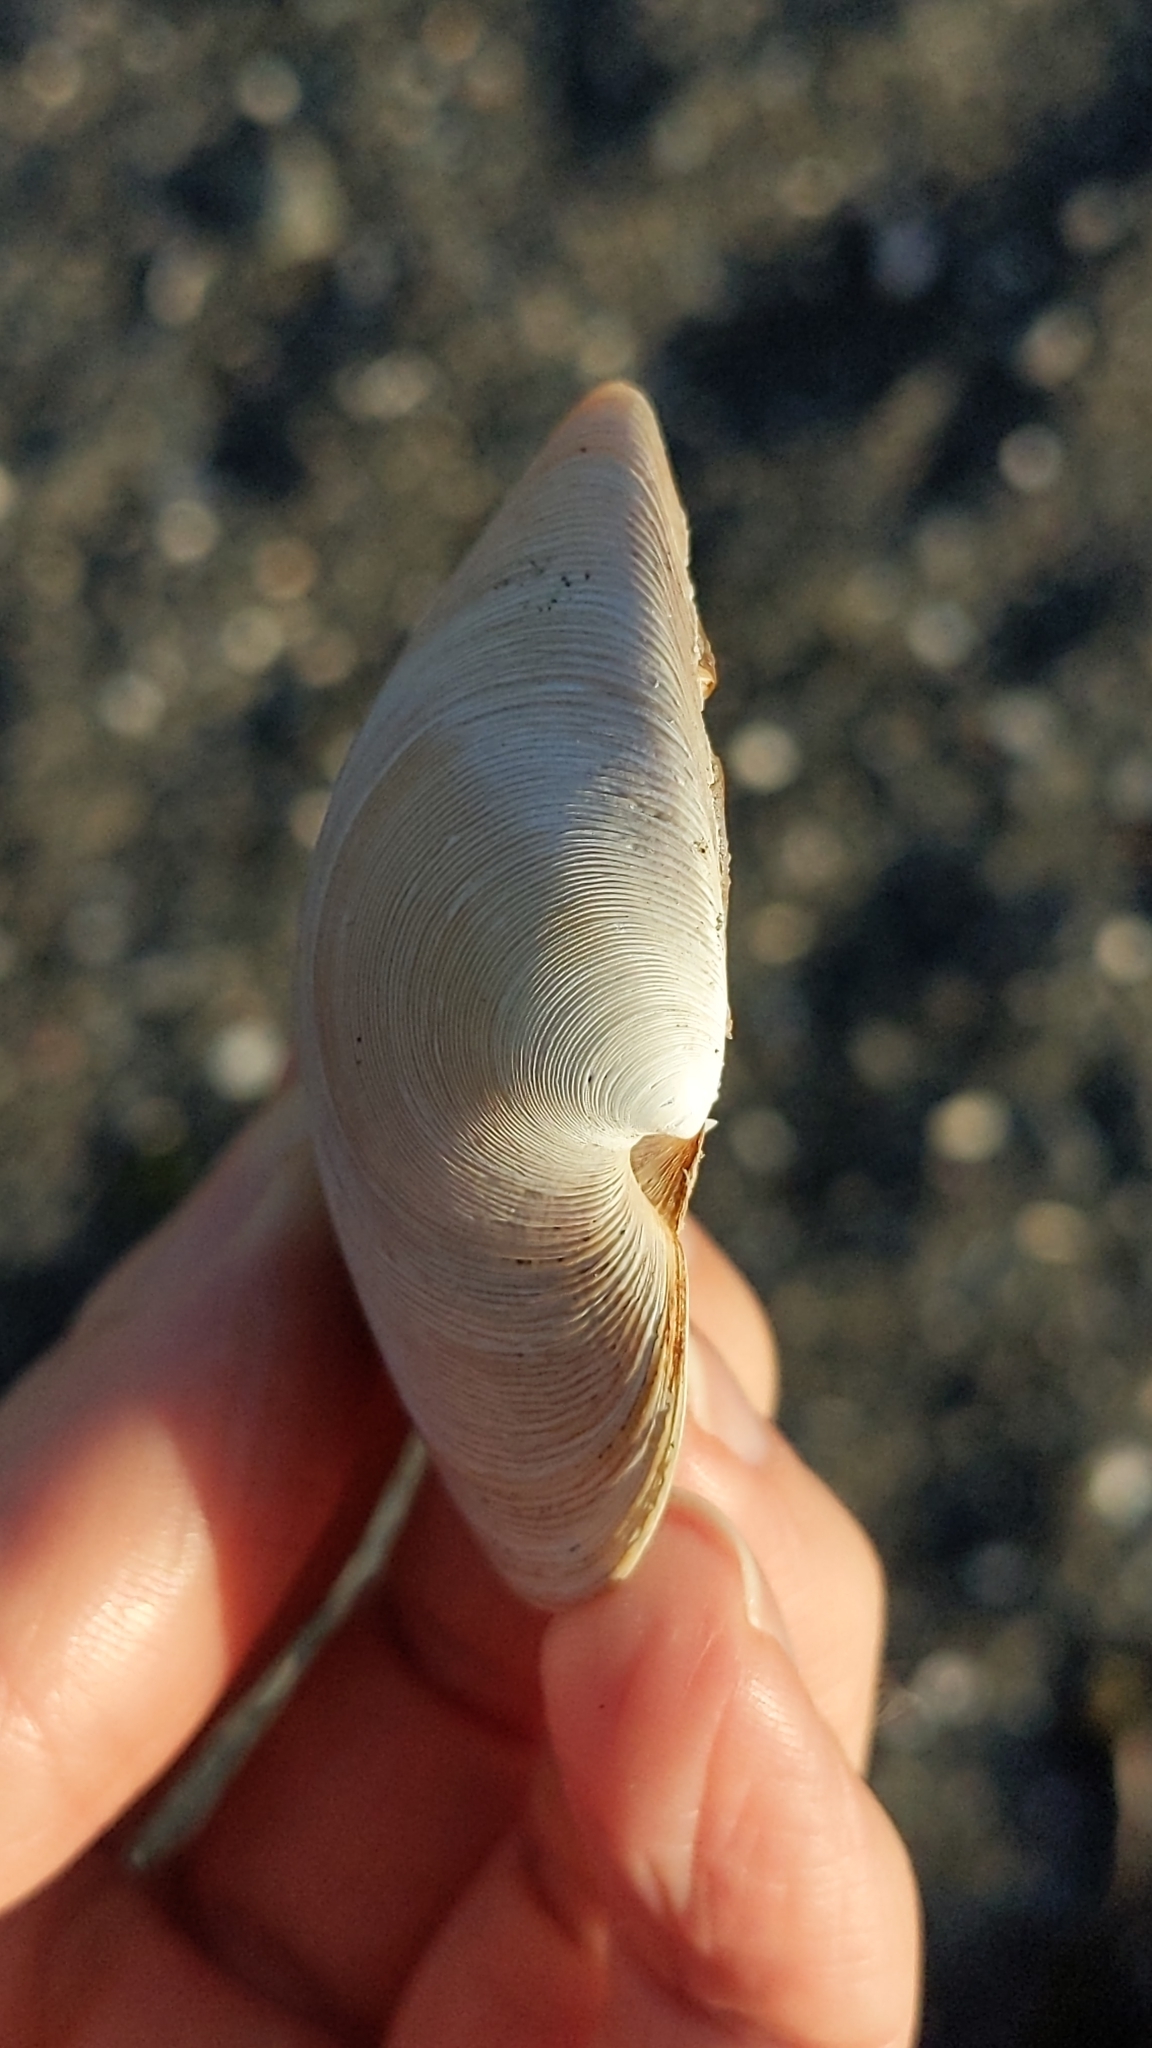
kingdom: Animalia
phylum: Mollusca
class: Bivalvia
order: Venerida
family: Veneridae
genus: Dosinia
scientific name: Dosinia subrosea
